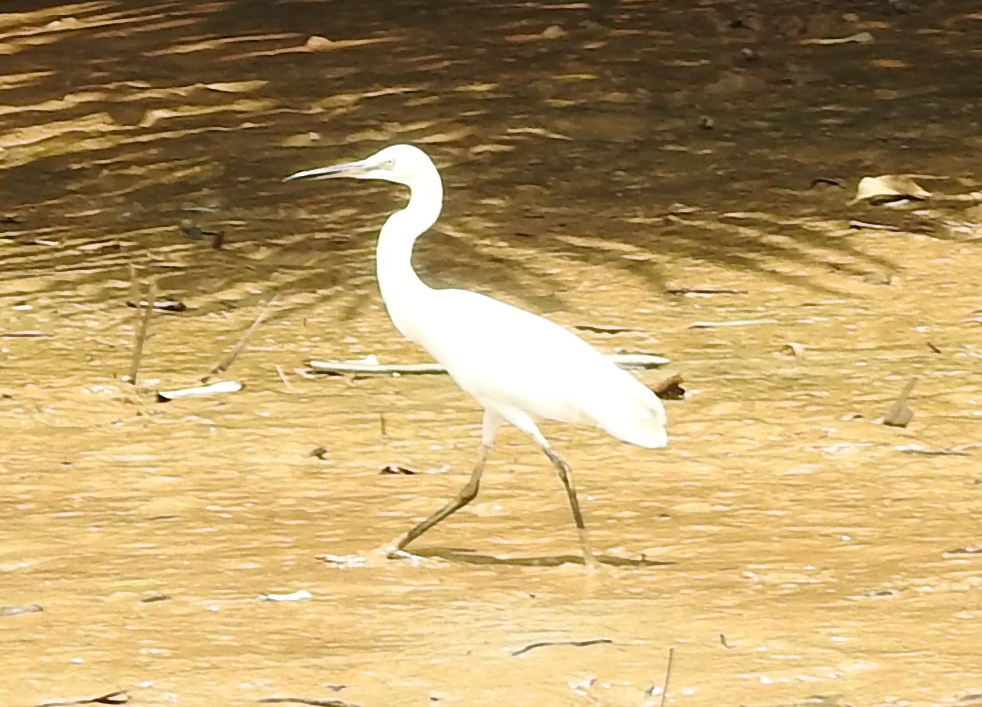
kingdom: Animalia
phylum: Chordata
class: Aves
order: Pelecaniformes
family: Ardeidae
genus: Egretta
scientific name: Egretta garzetta
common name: Little egret
